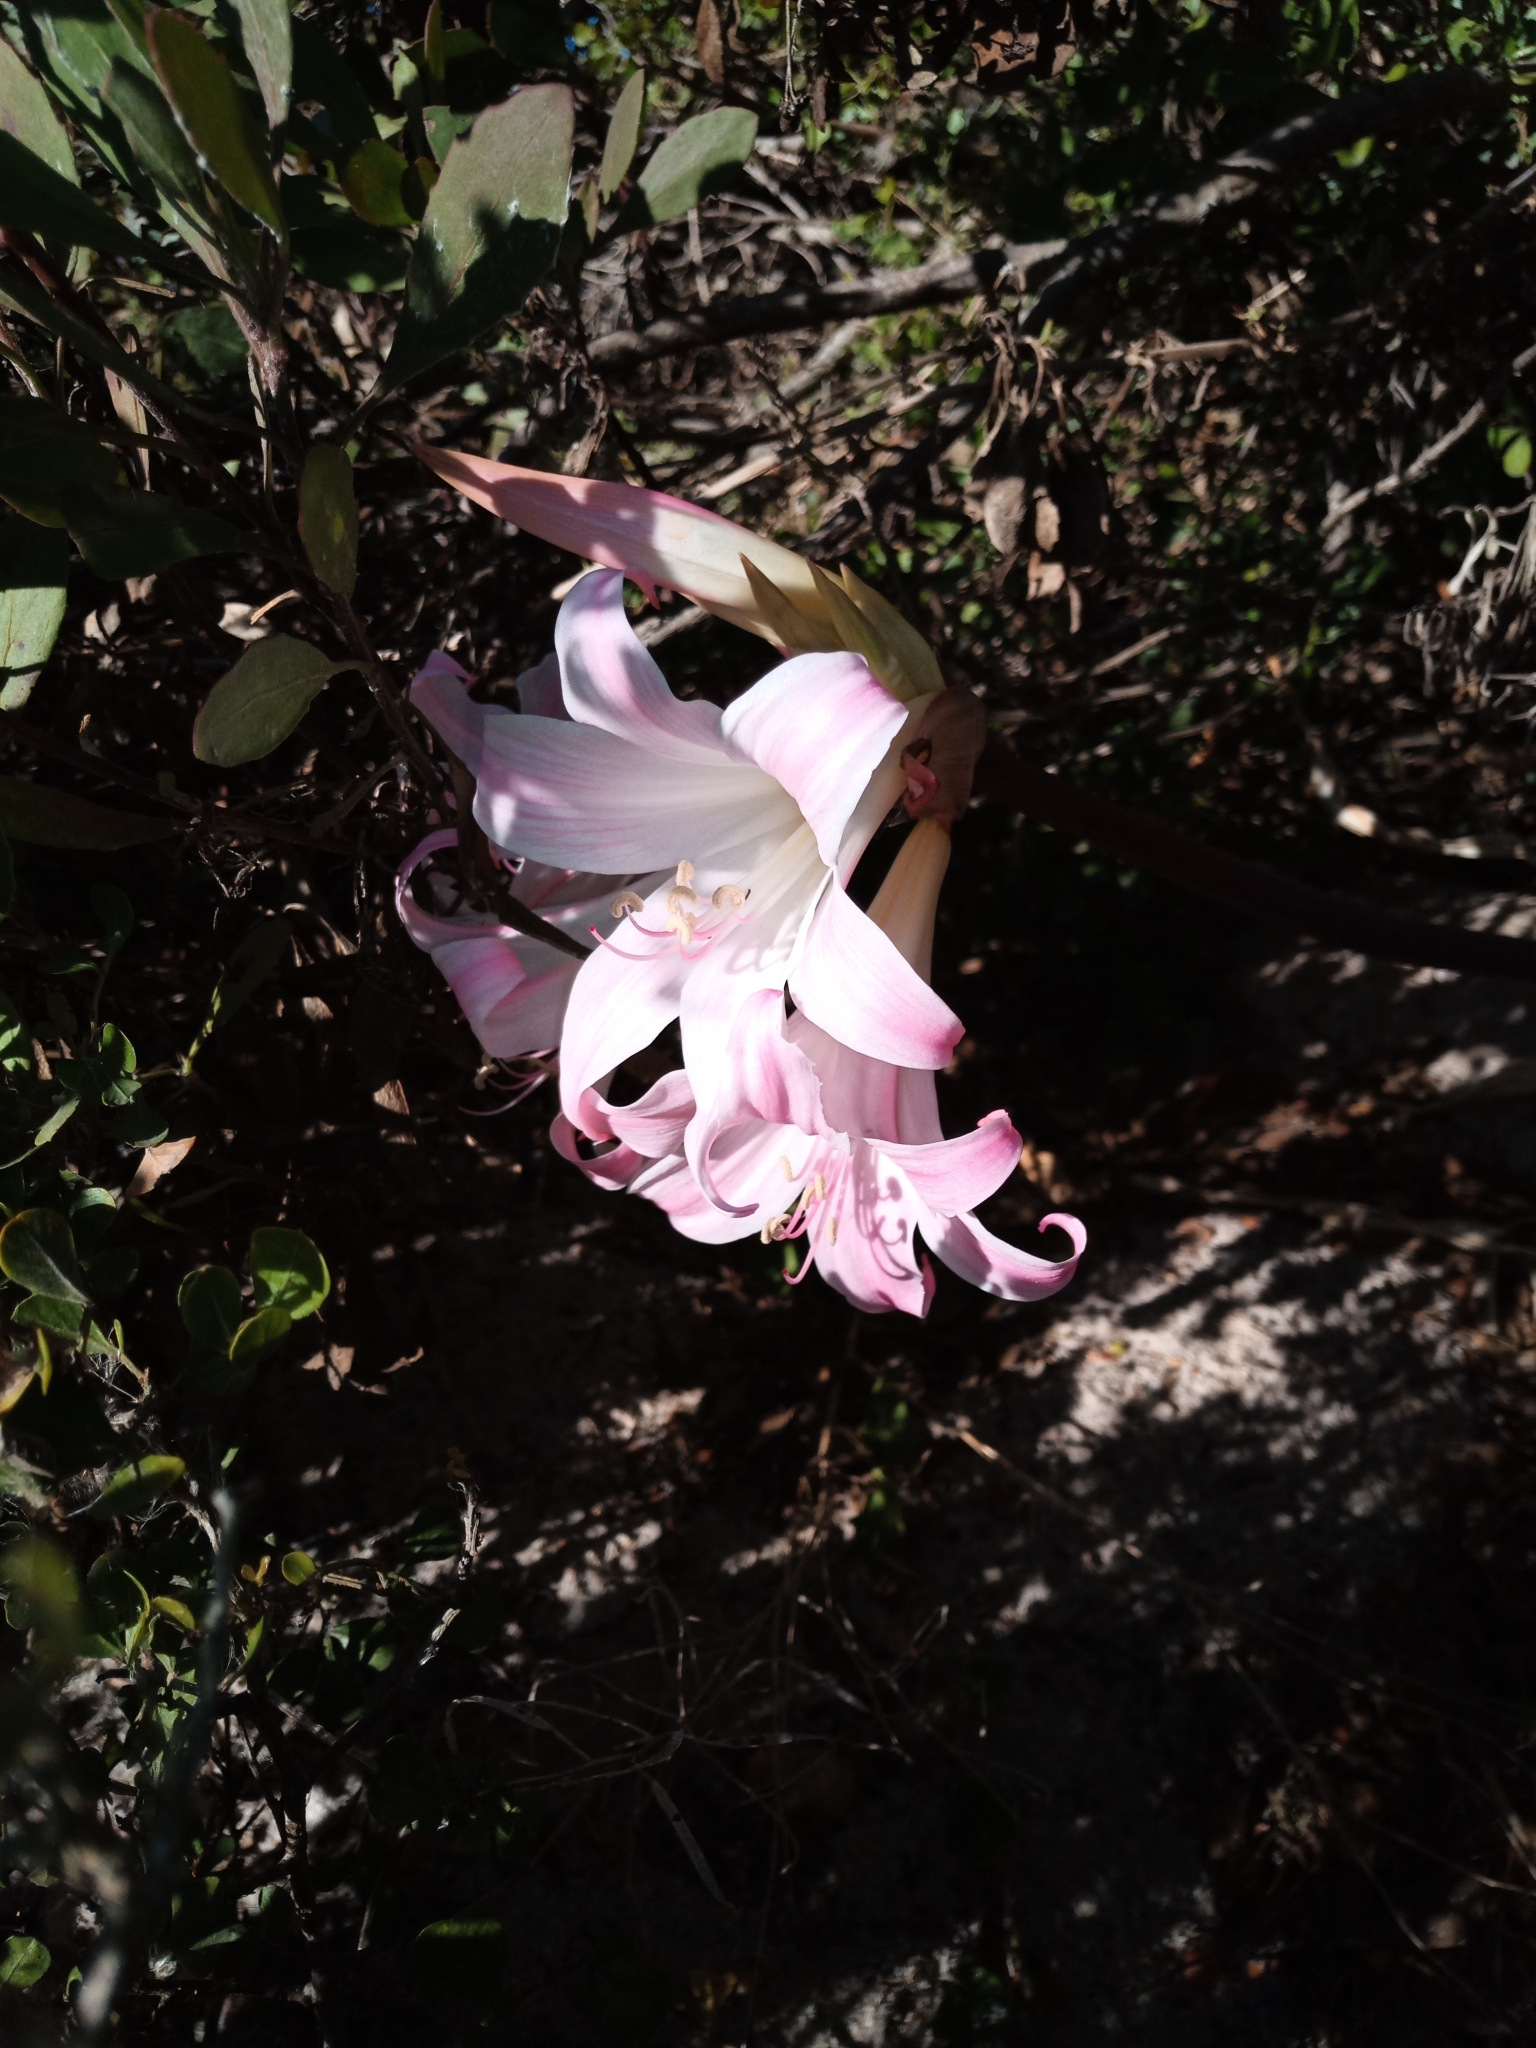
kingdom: Plantae
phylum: Tracheophyta
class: Liliopsida
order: Asparagales
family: Amaryllidaceae
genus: Amaryllis
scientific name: Amaryllis belladonna
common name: Jersey lily
